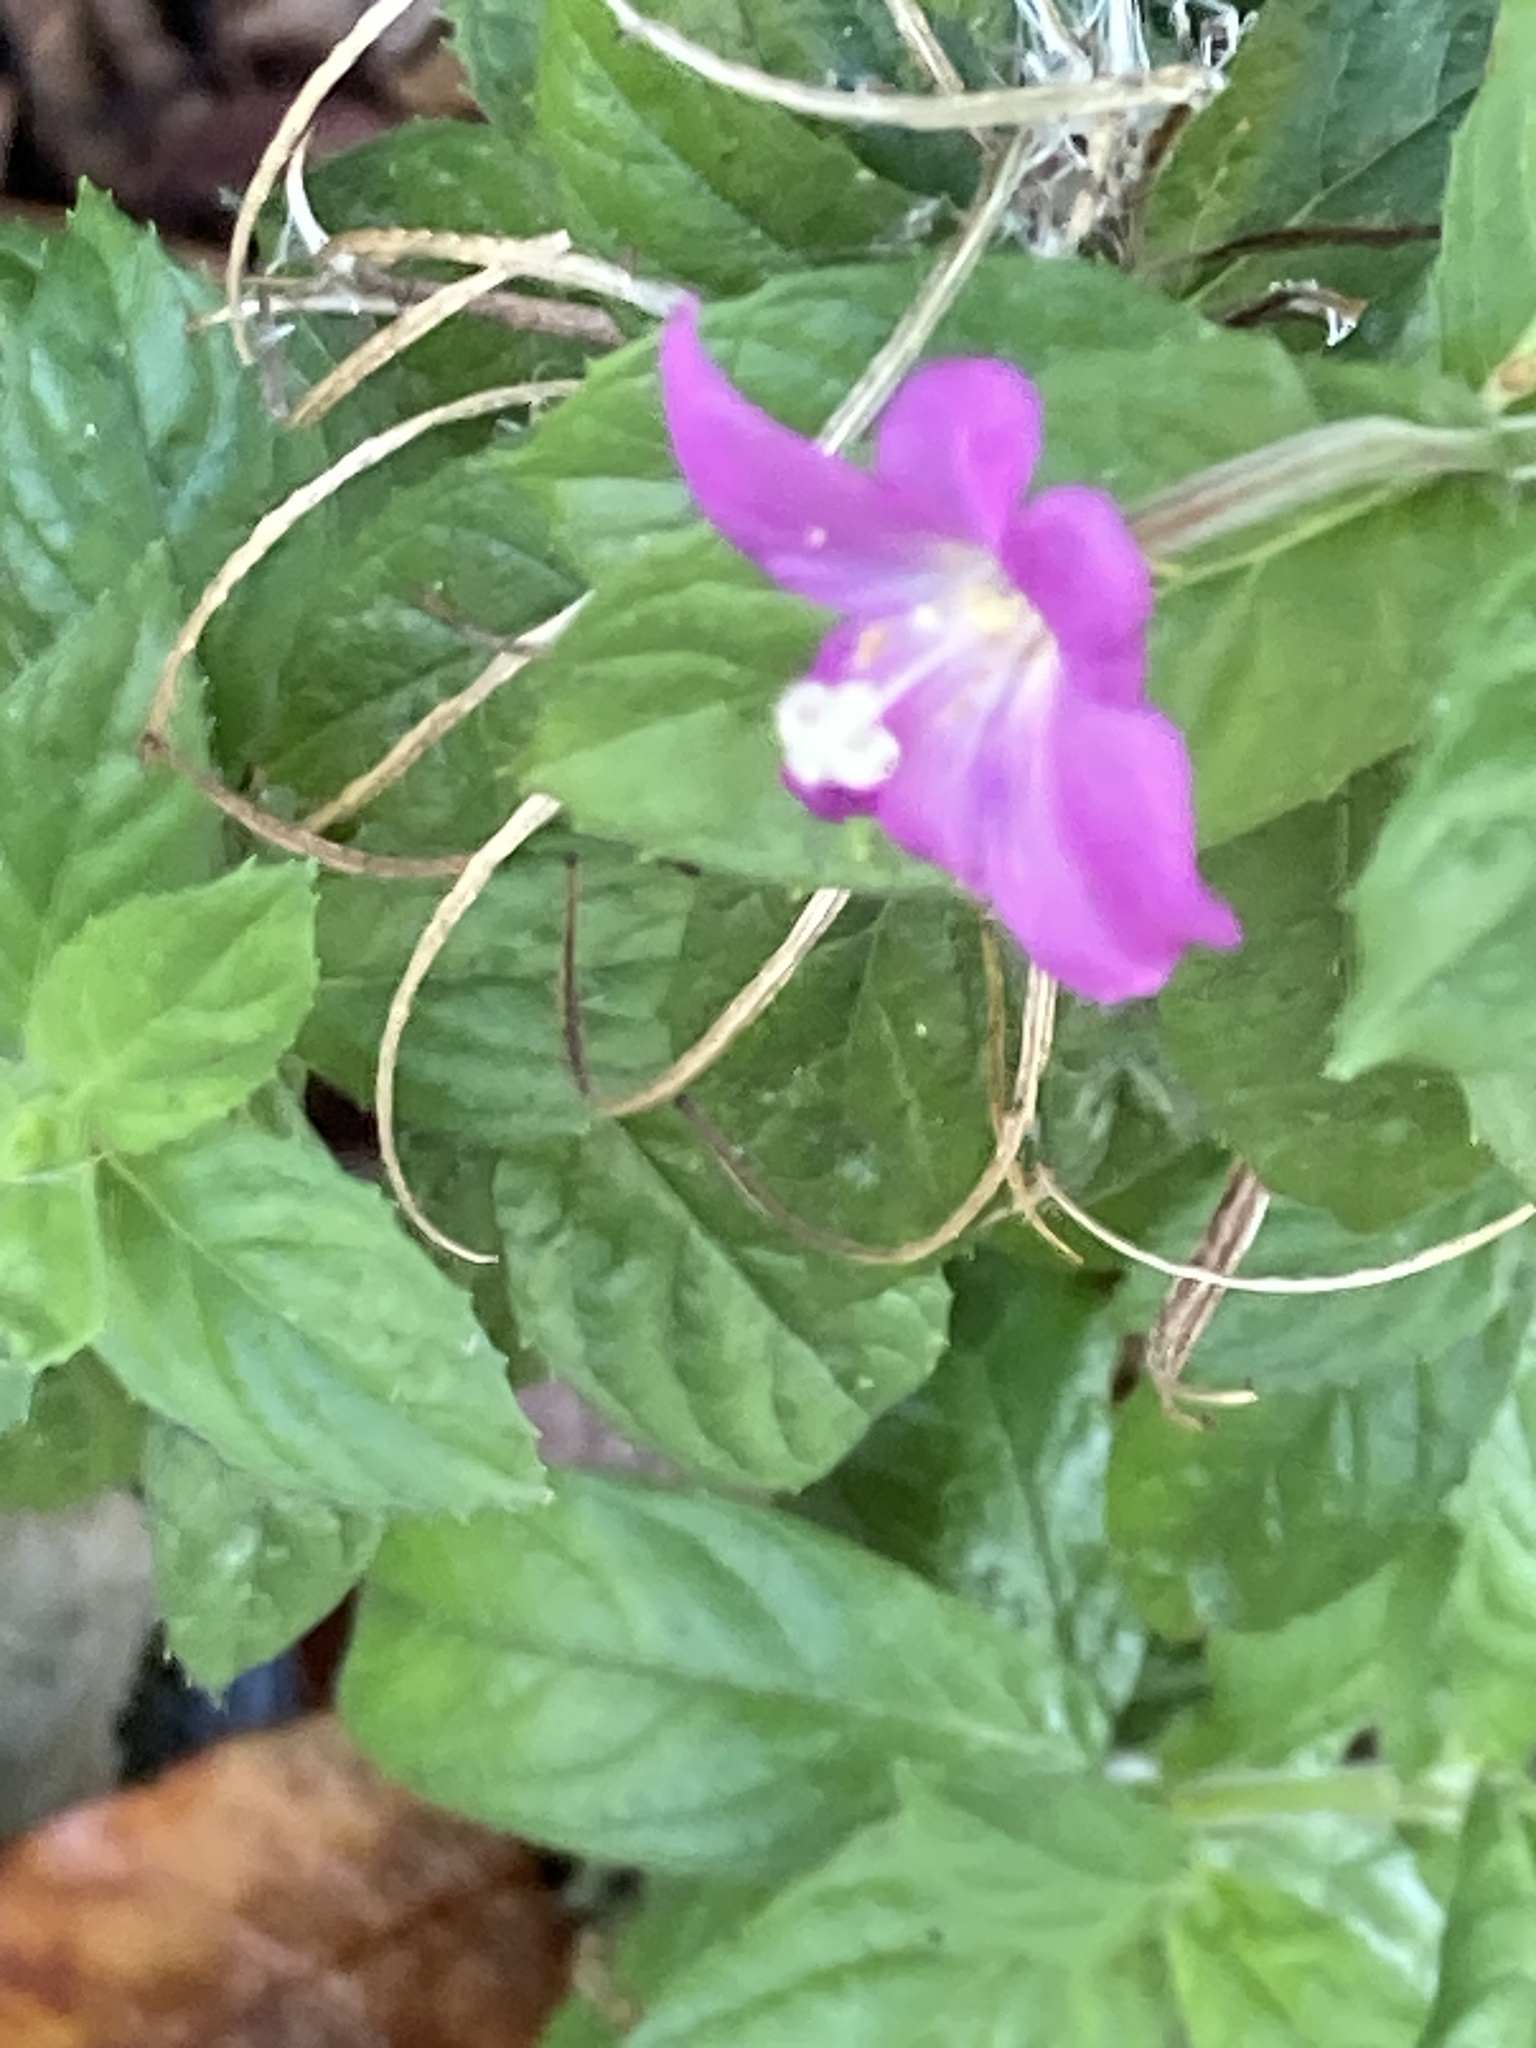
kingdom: Plantae
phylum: Tracheophyta
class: Magnoliopsida
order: Myrtales
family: Onagraceae
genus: Epilobium
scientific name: Epilobium hirsutum
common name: Great willowherb
